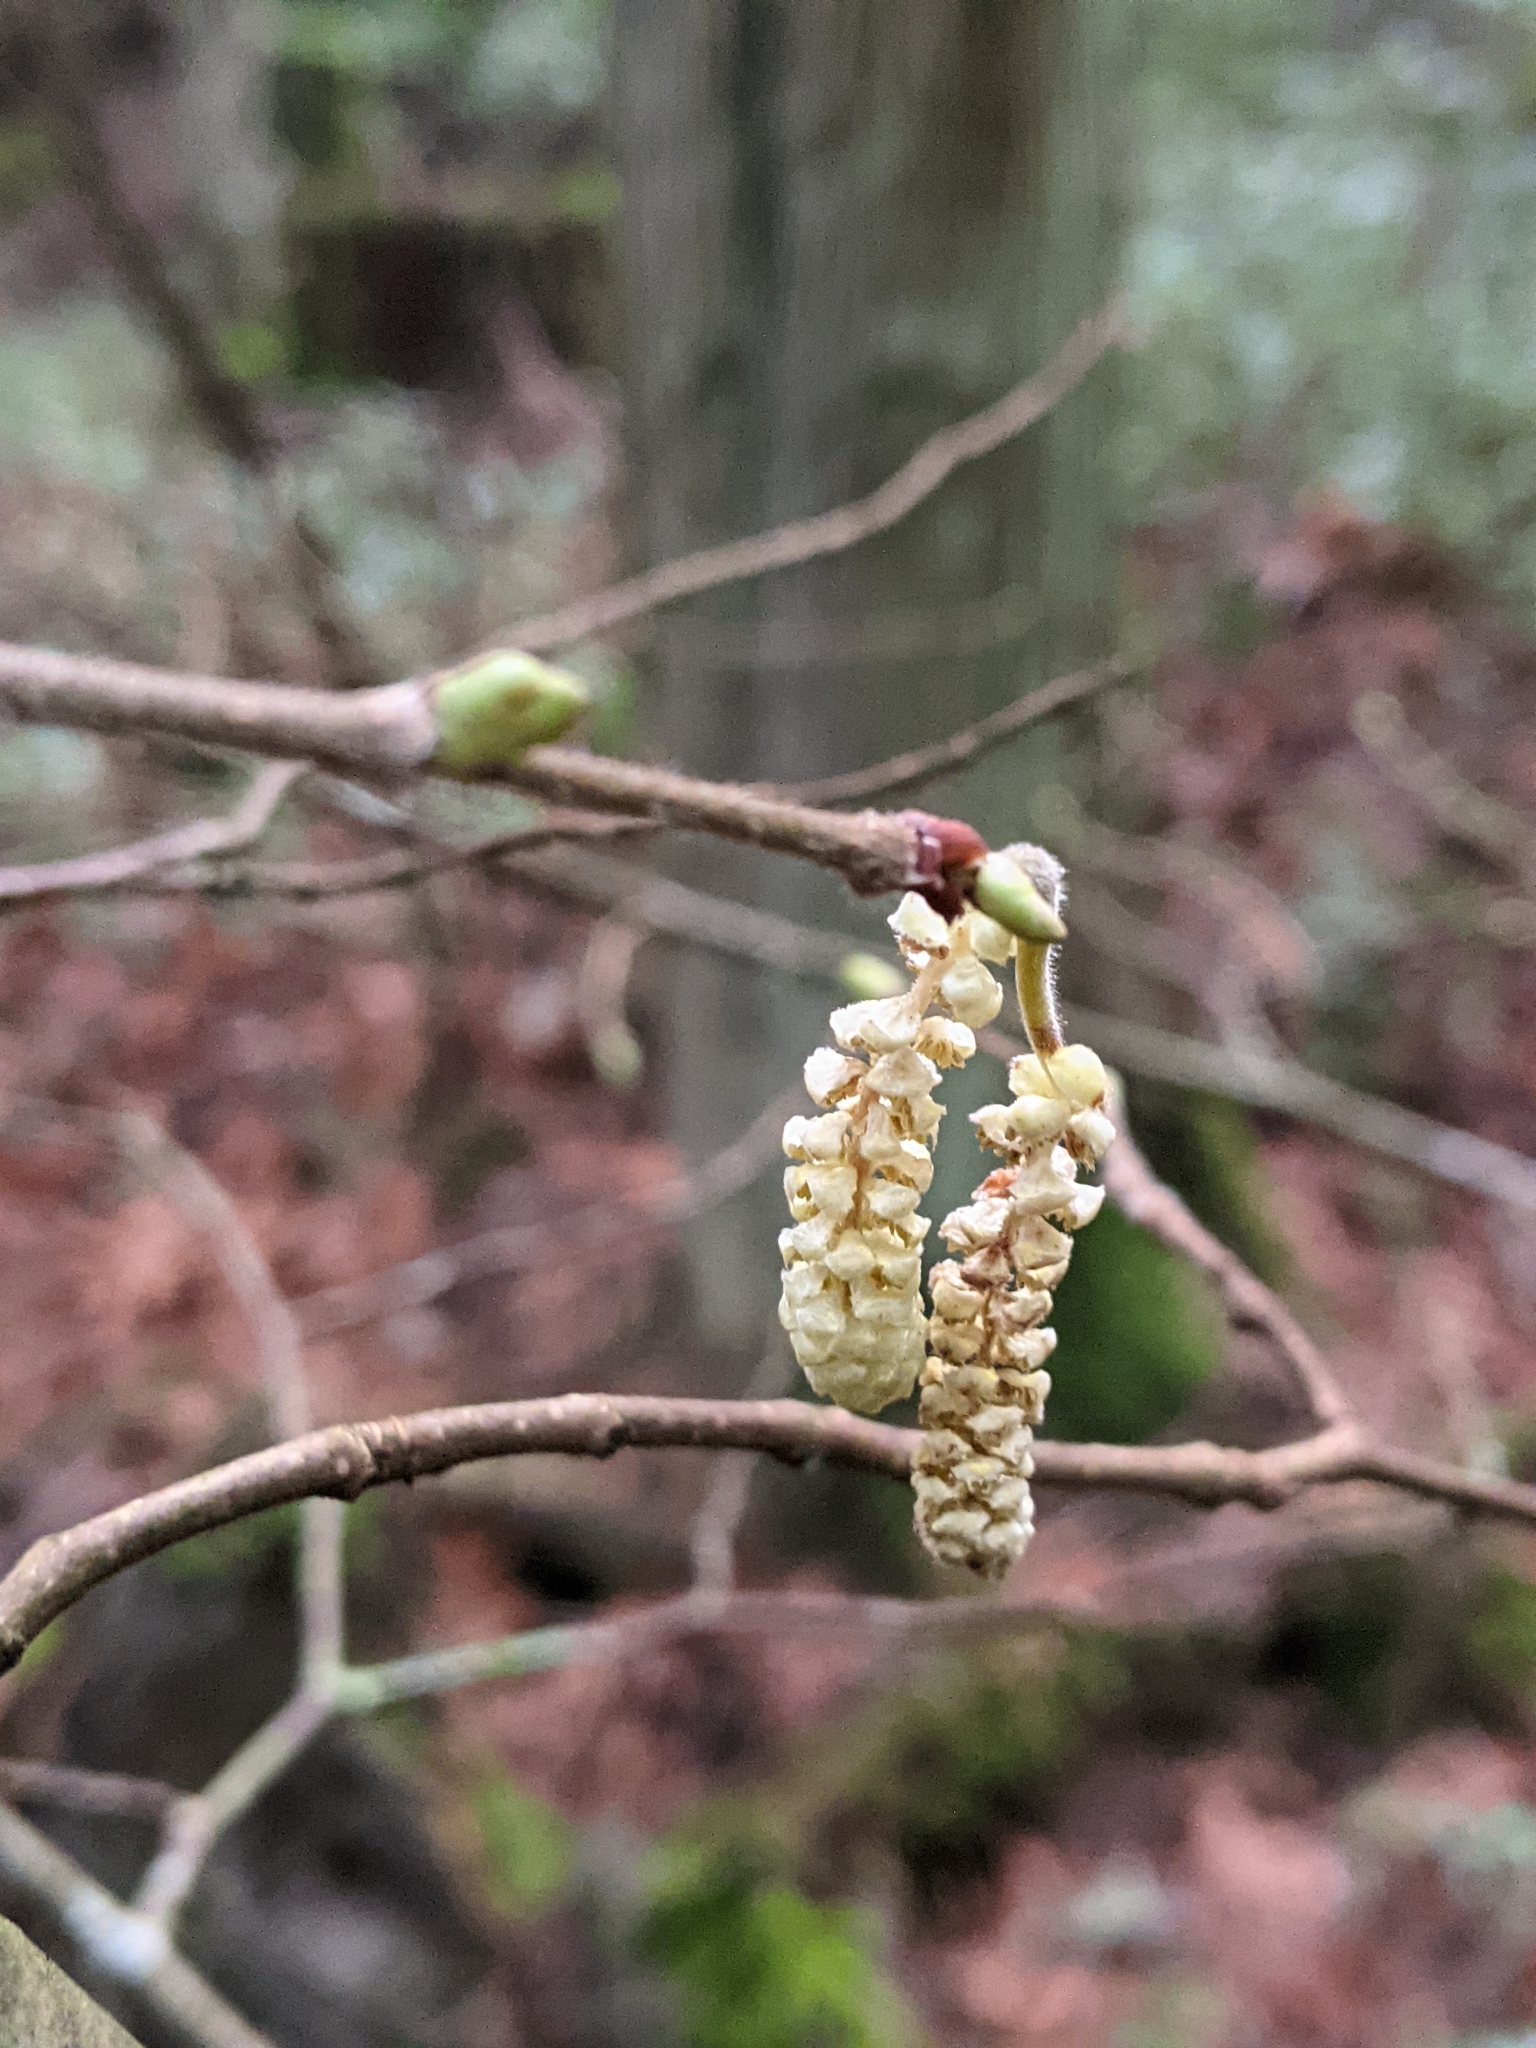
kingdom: Plantae
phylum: Tracheophyta
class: Magnoliopsida
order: Fagales
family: Betulaceae
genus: Corylus
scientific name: Corylus avellana
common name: European hazel
